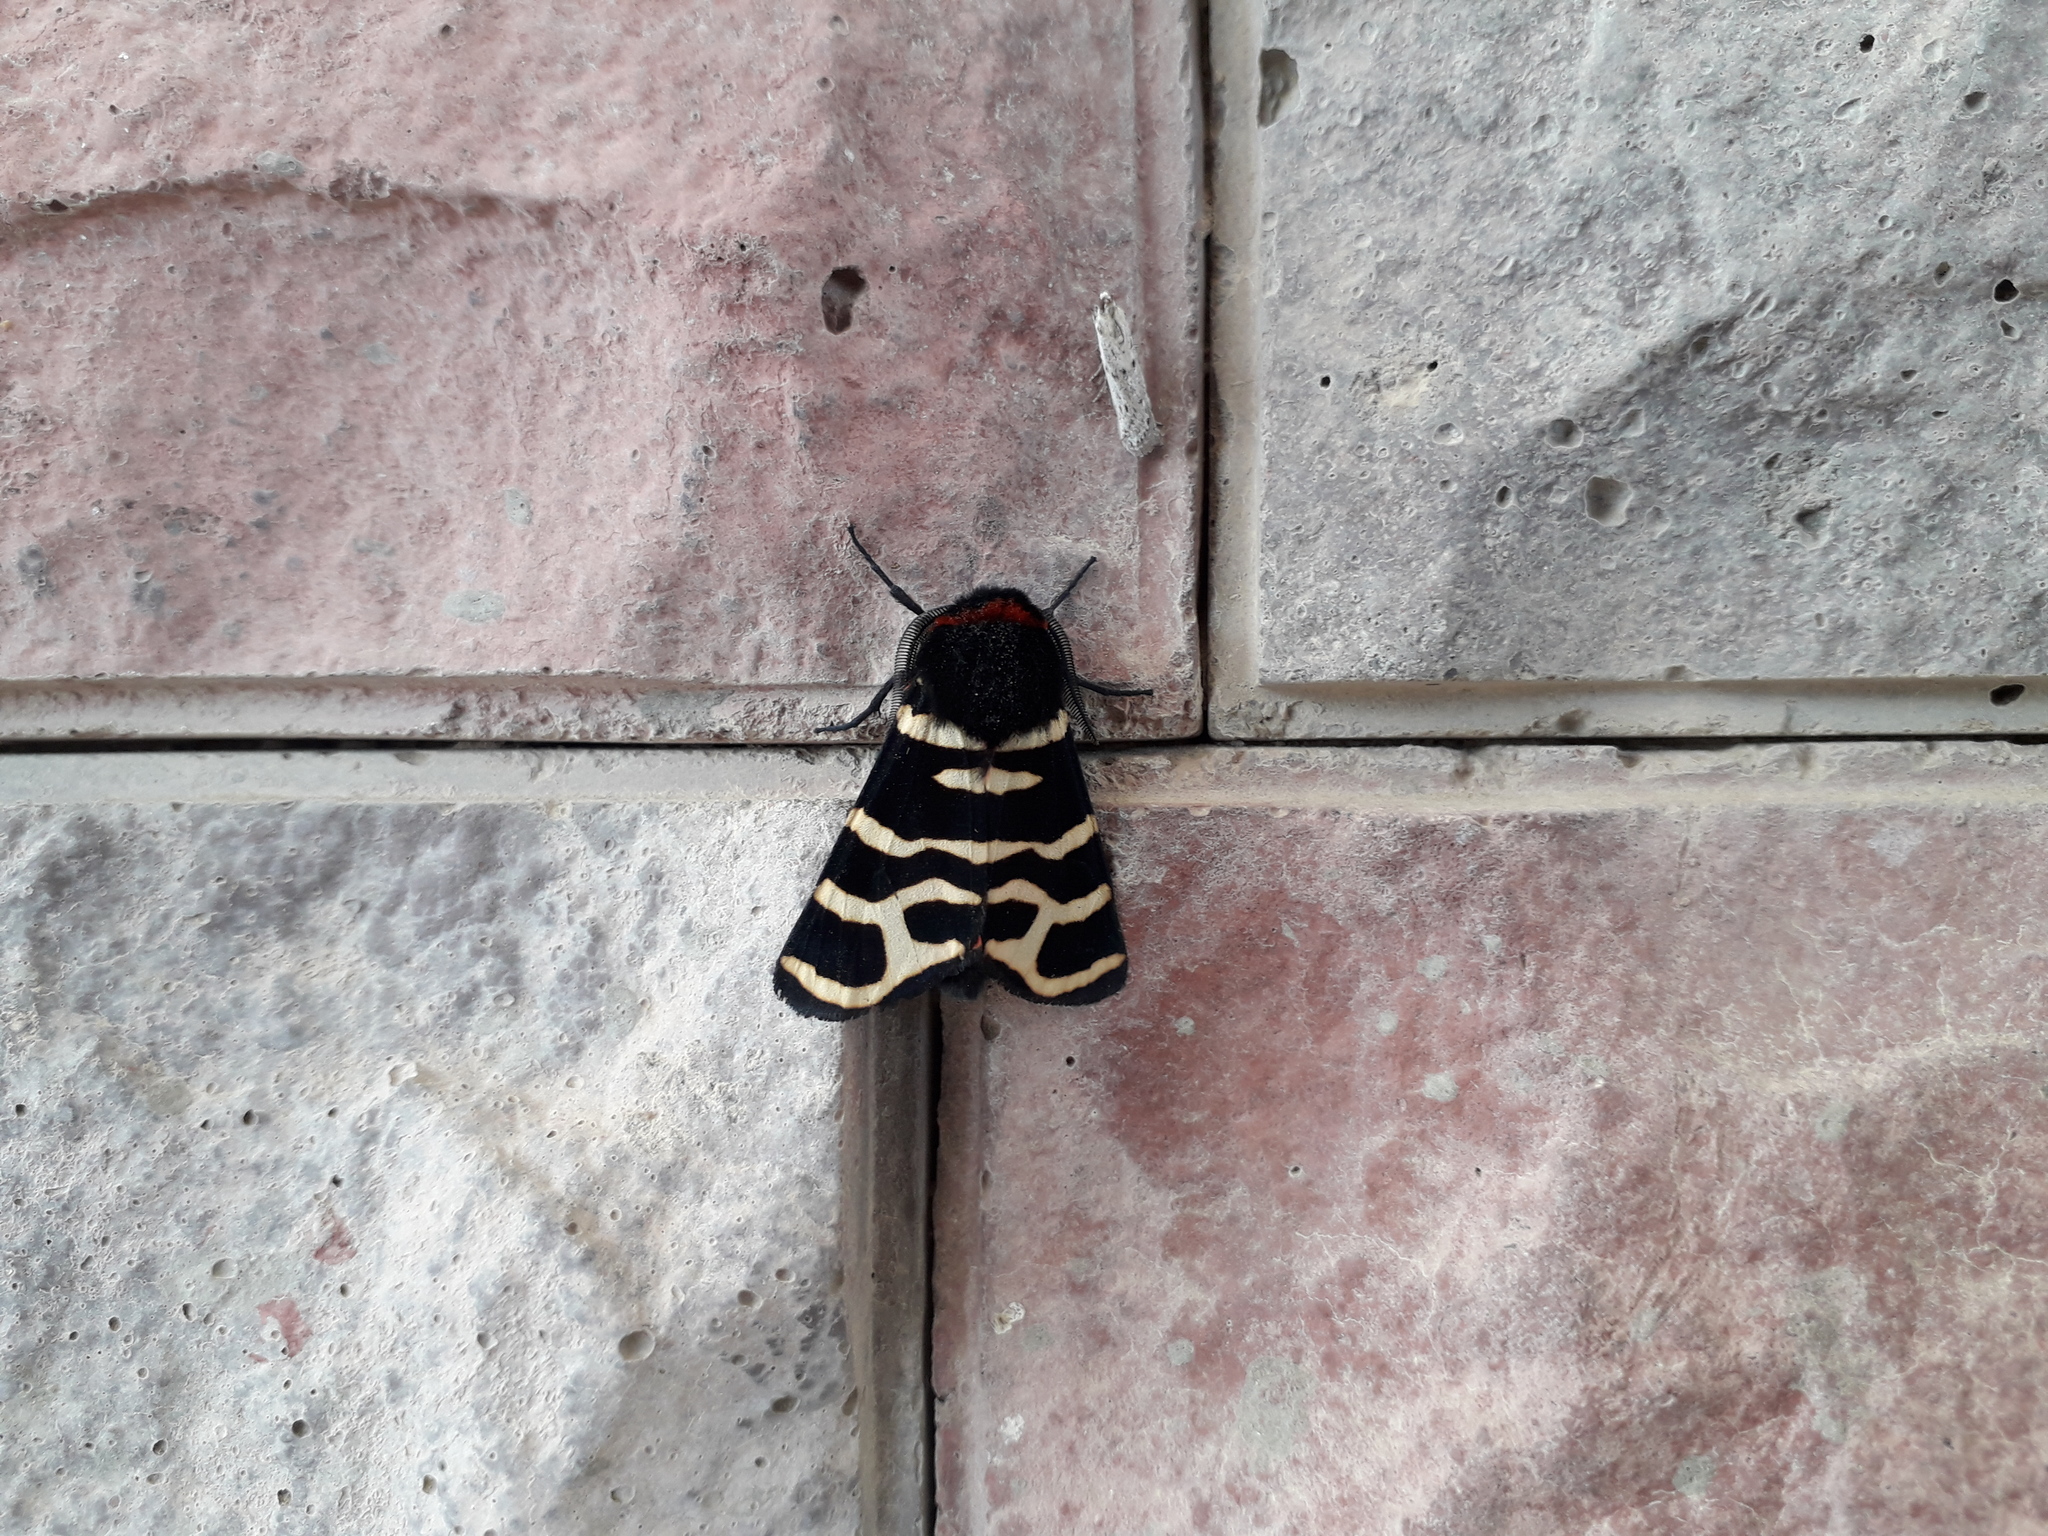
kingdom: Animalia
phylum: Arthropoda
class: Insecta
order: Lepidoptera
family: Erebidae
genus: Eucharia
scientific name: Eucharia festiva
